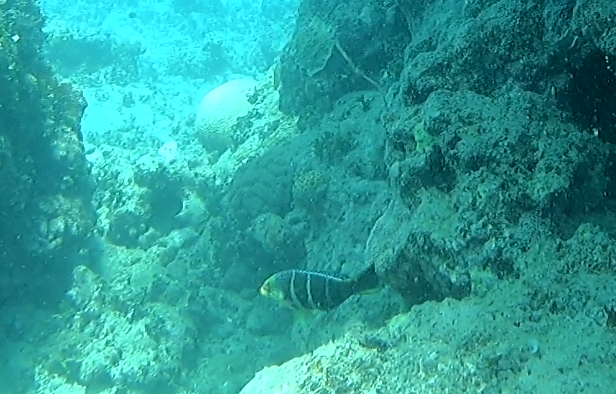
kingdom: Animalia
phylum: Chordata
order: Perciformes
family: Labridae
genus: Hemigymnus
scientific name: Hemigymnus fasciatus
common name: Barred thicklip
